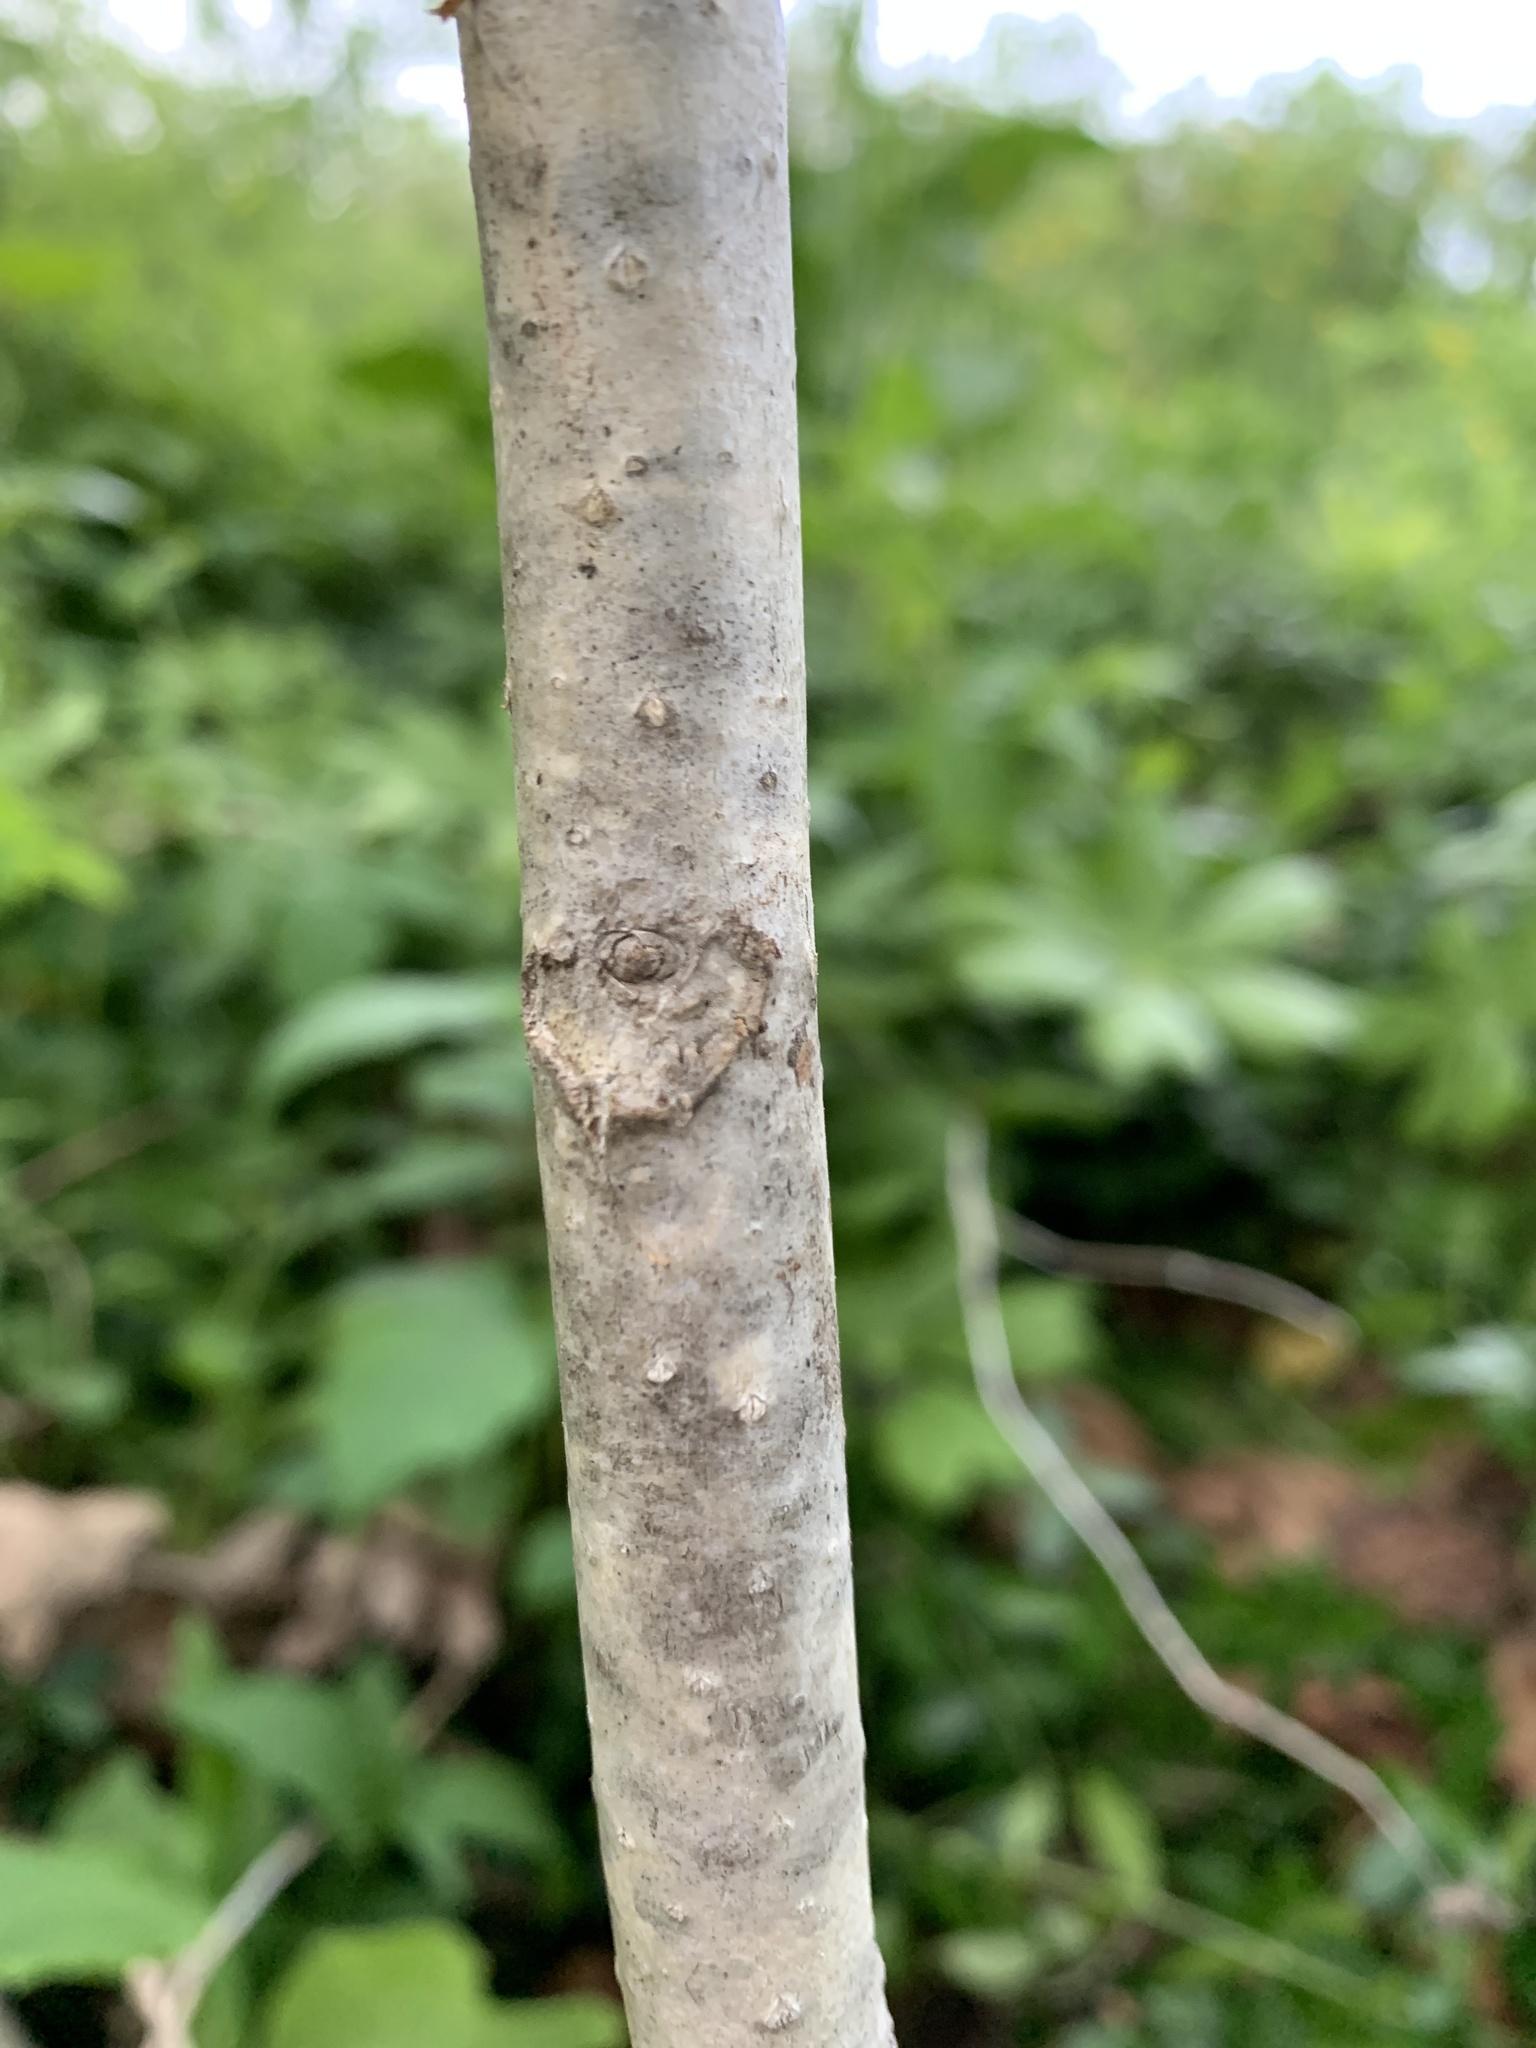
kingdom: Plantae
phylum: Tracheophyta
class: Magnoliopsida
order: Sapindales
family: Simaroubaceae
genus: Ailanthus
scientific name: Ailanthus altissima
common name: Tree-of-heaven
